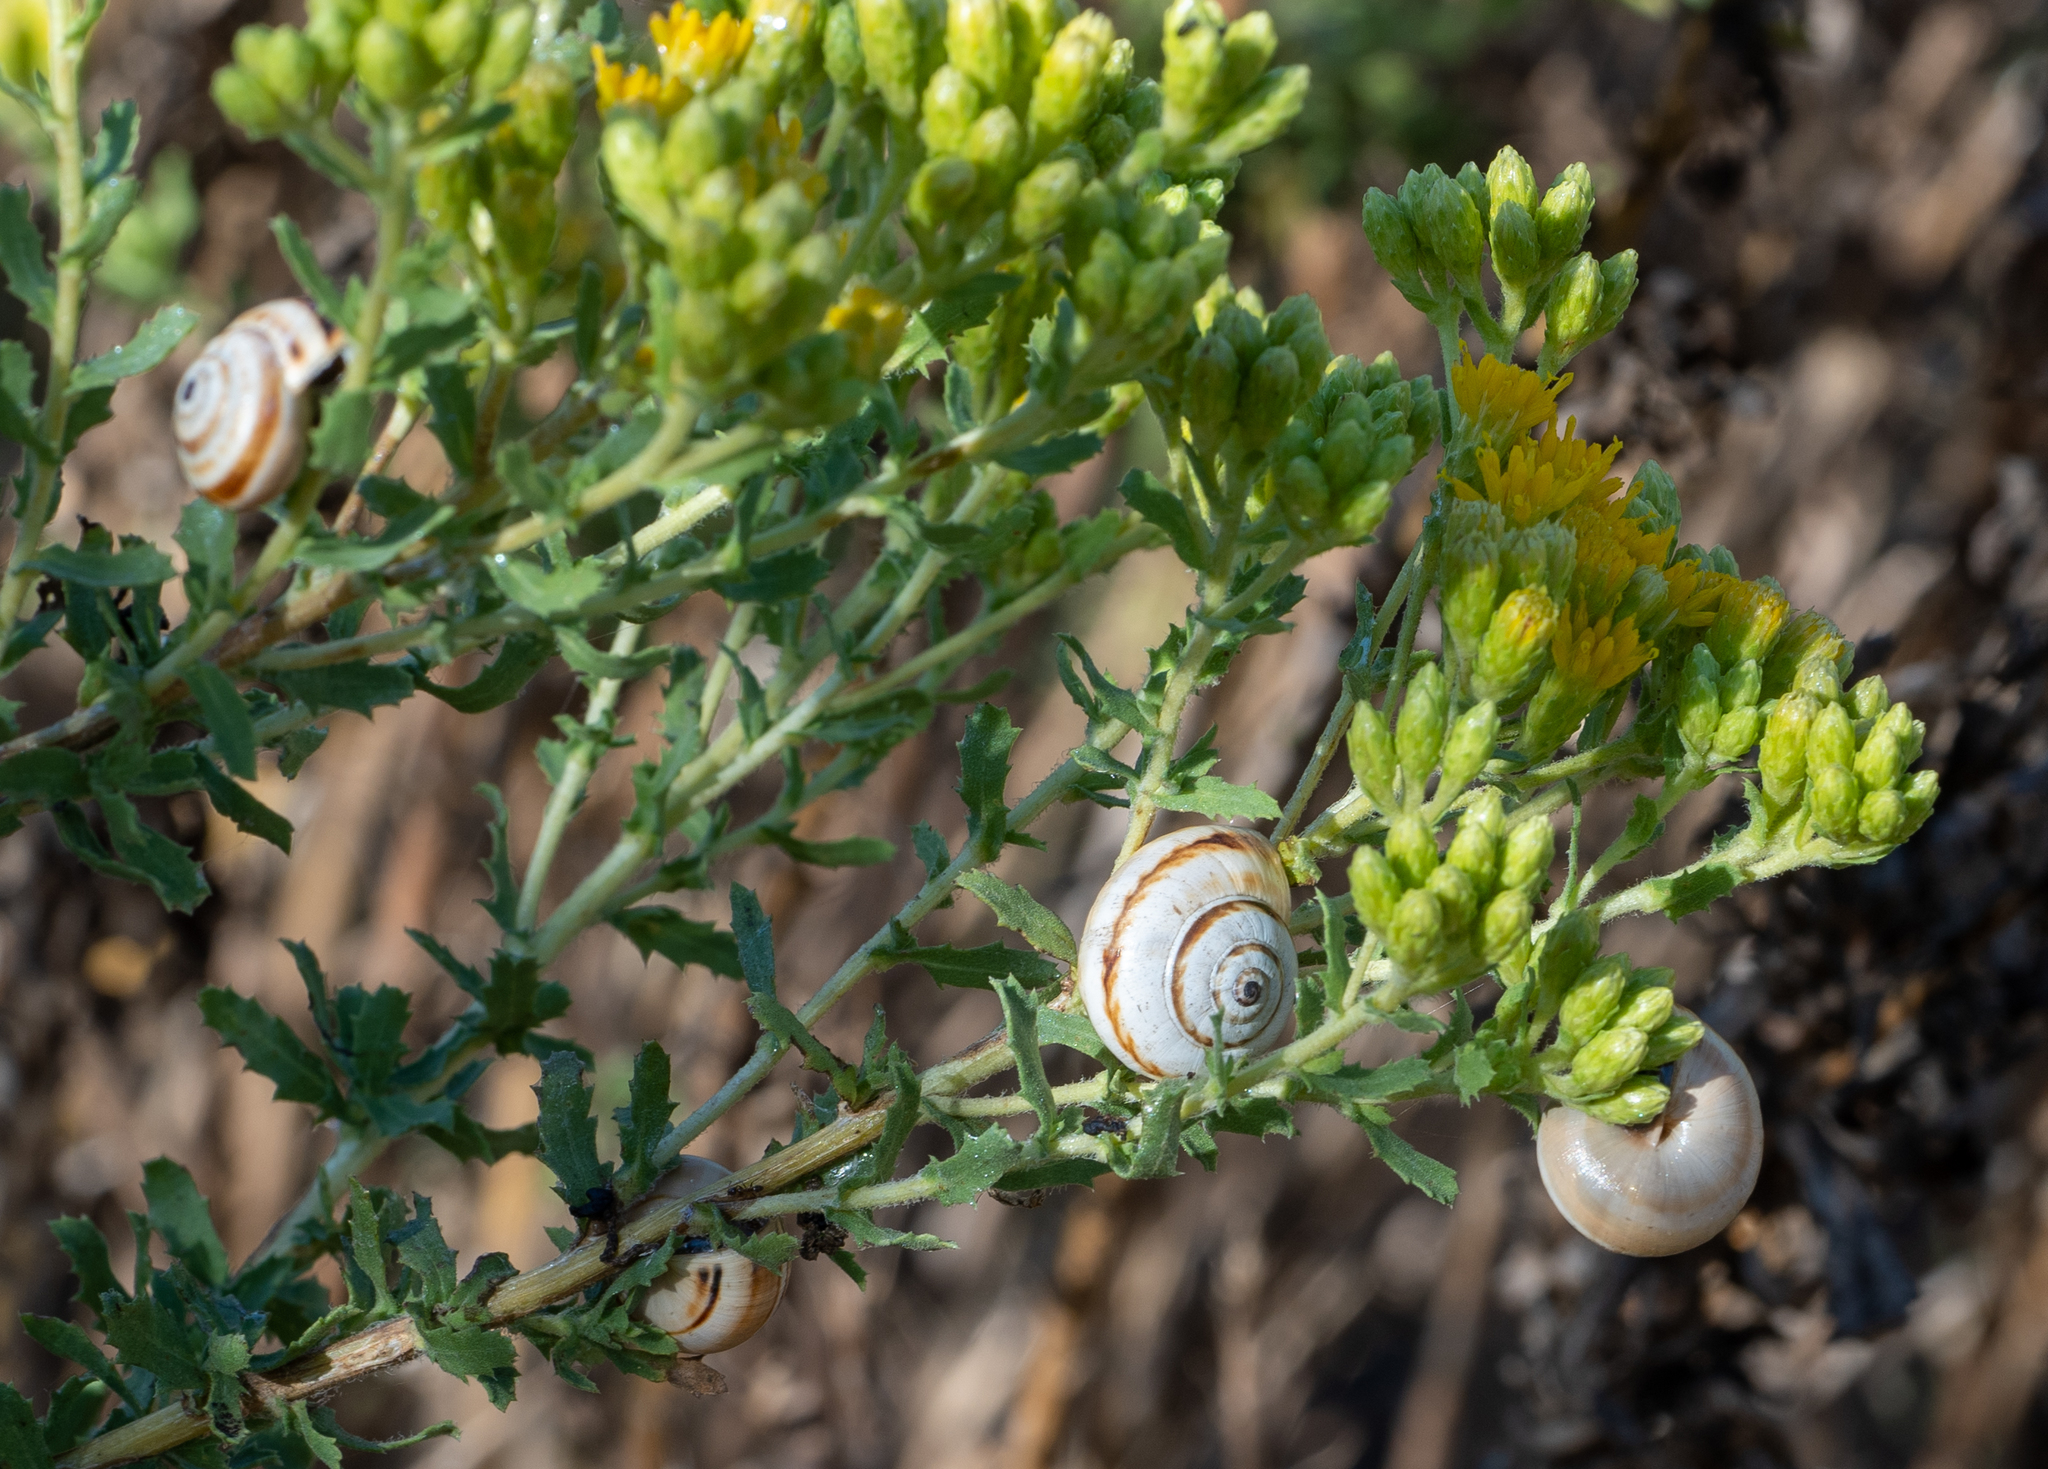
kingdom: Animalia
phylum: Mollusca
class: Gastropoda
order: Stylommatophora
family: Helicidae
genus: Theba
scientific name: Theba pisana
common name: White snail
